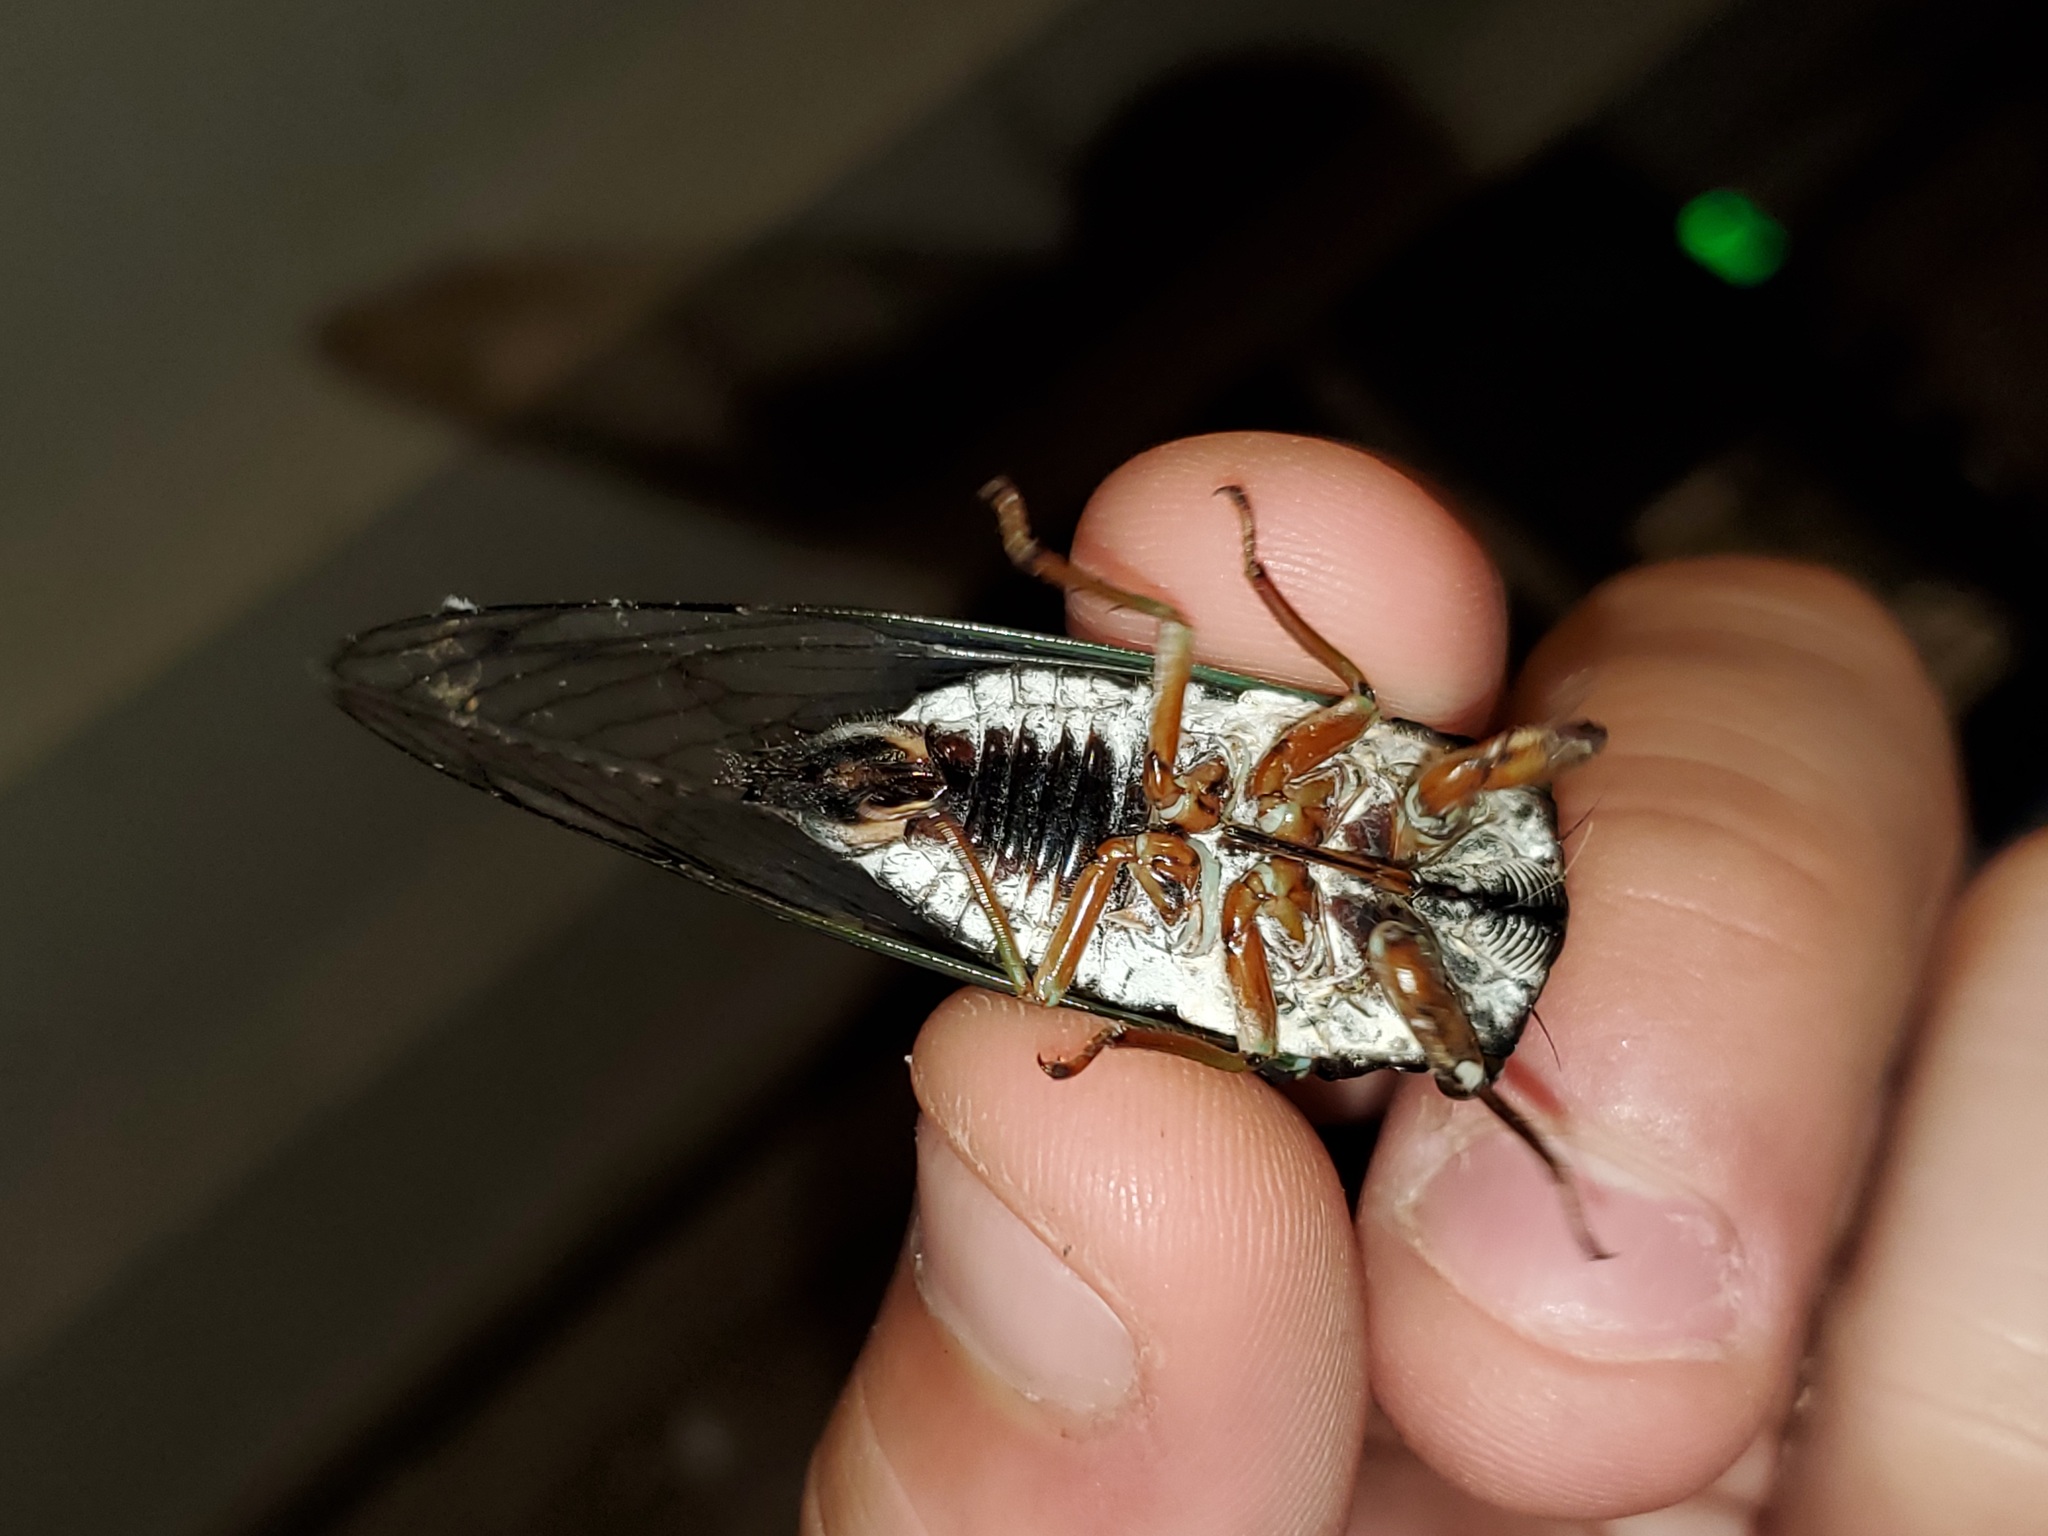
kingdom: Animalia
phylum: Arthropoda
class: Insecta
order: Hemiptera
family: Cicadidae
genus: Neotibicen
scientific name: Neotibicen lyricen
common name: Lyric cicada
